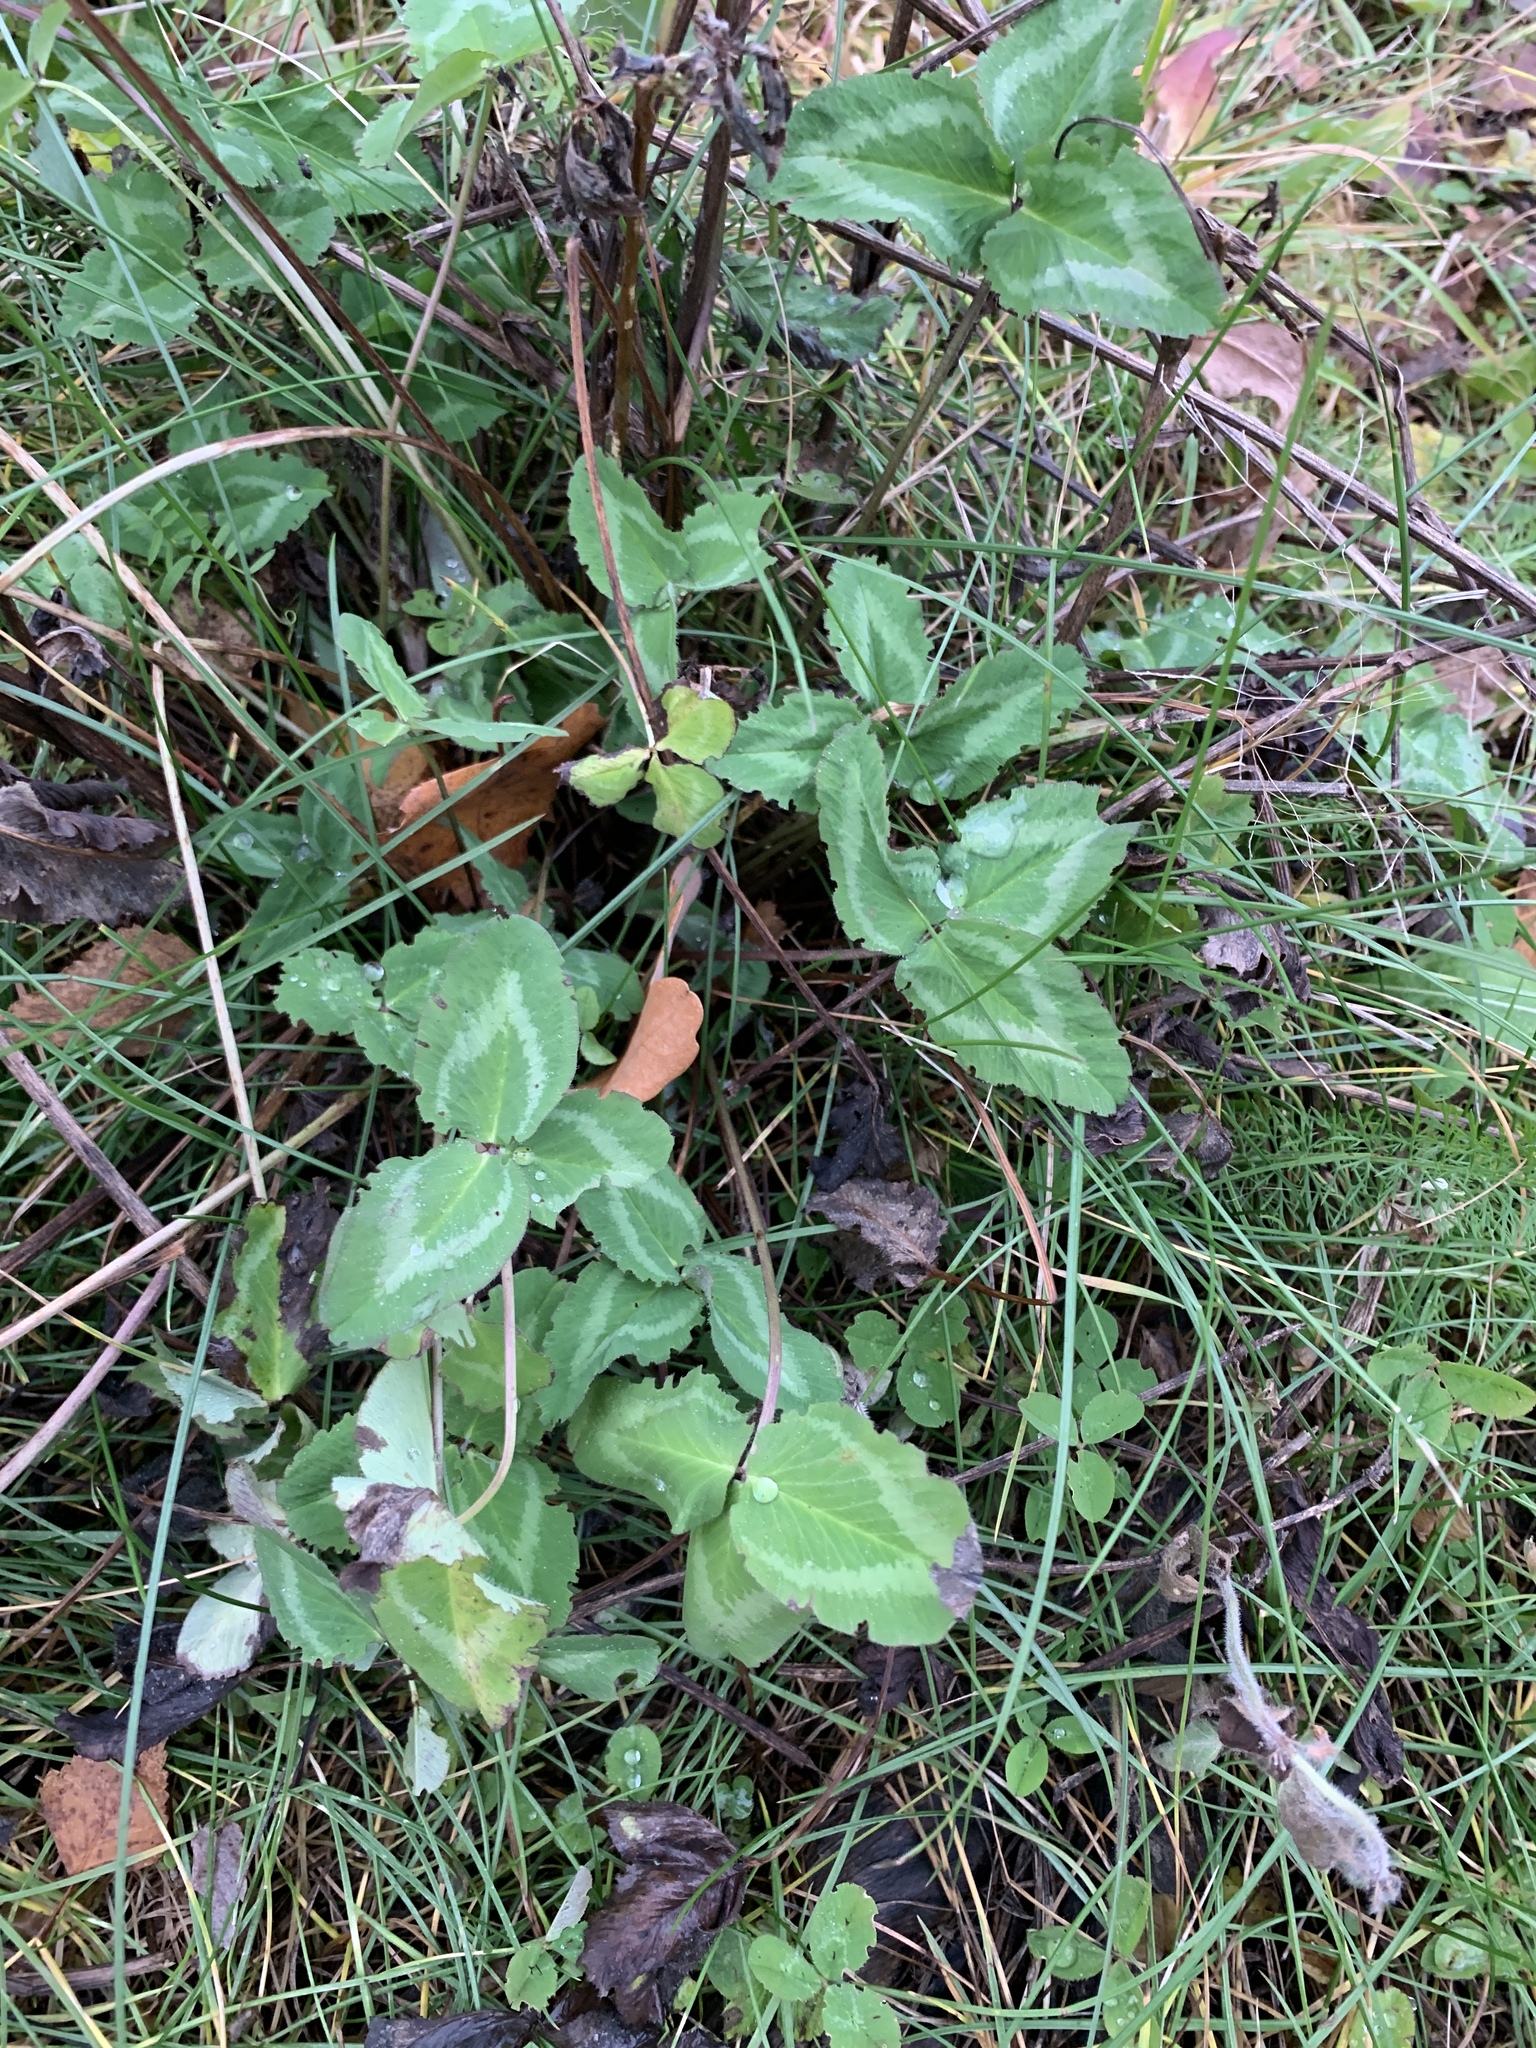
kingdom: Plantae
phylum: Tracheophyta
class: Magnoliopsida
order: Fabales
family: Fabaceae
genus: Trifolium
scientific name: Trifolium pratense
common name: Red clover
